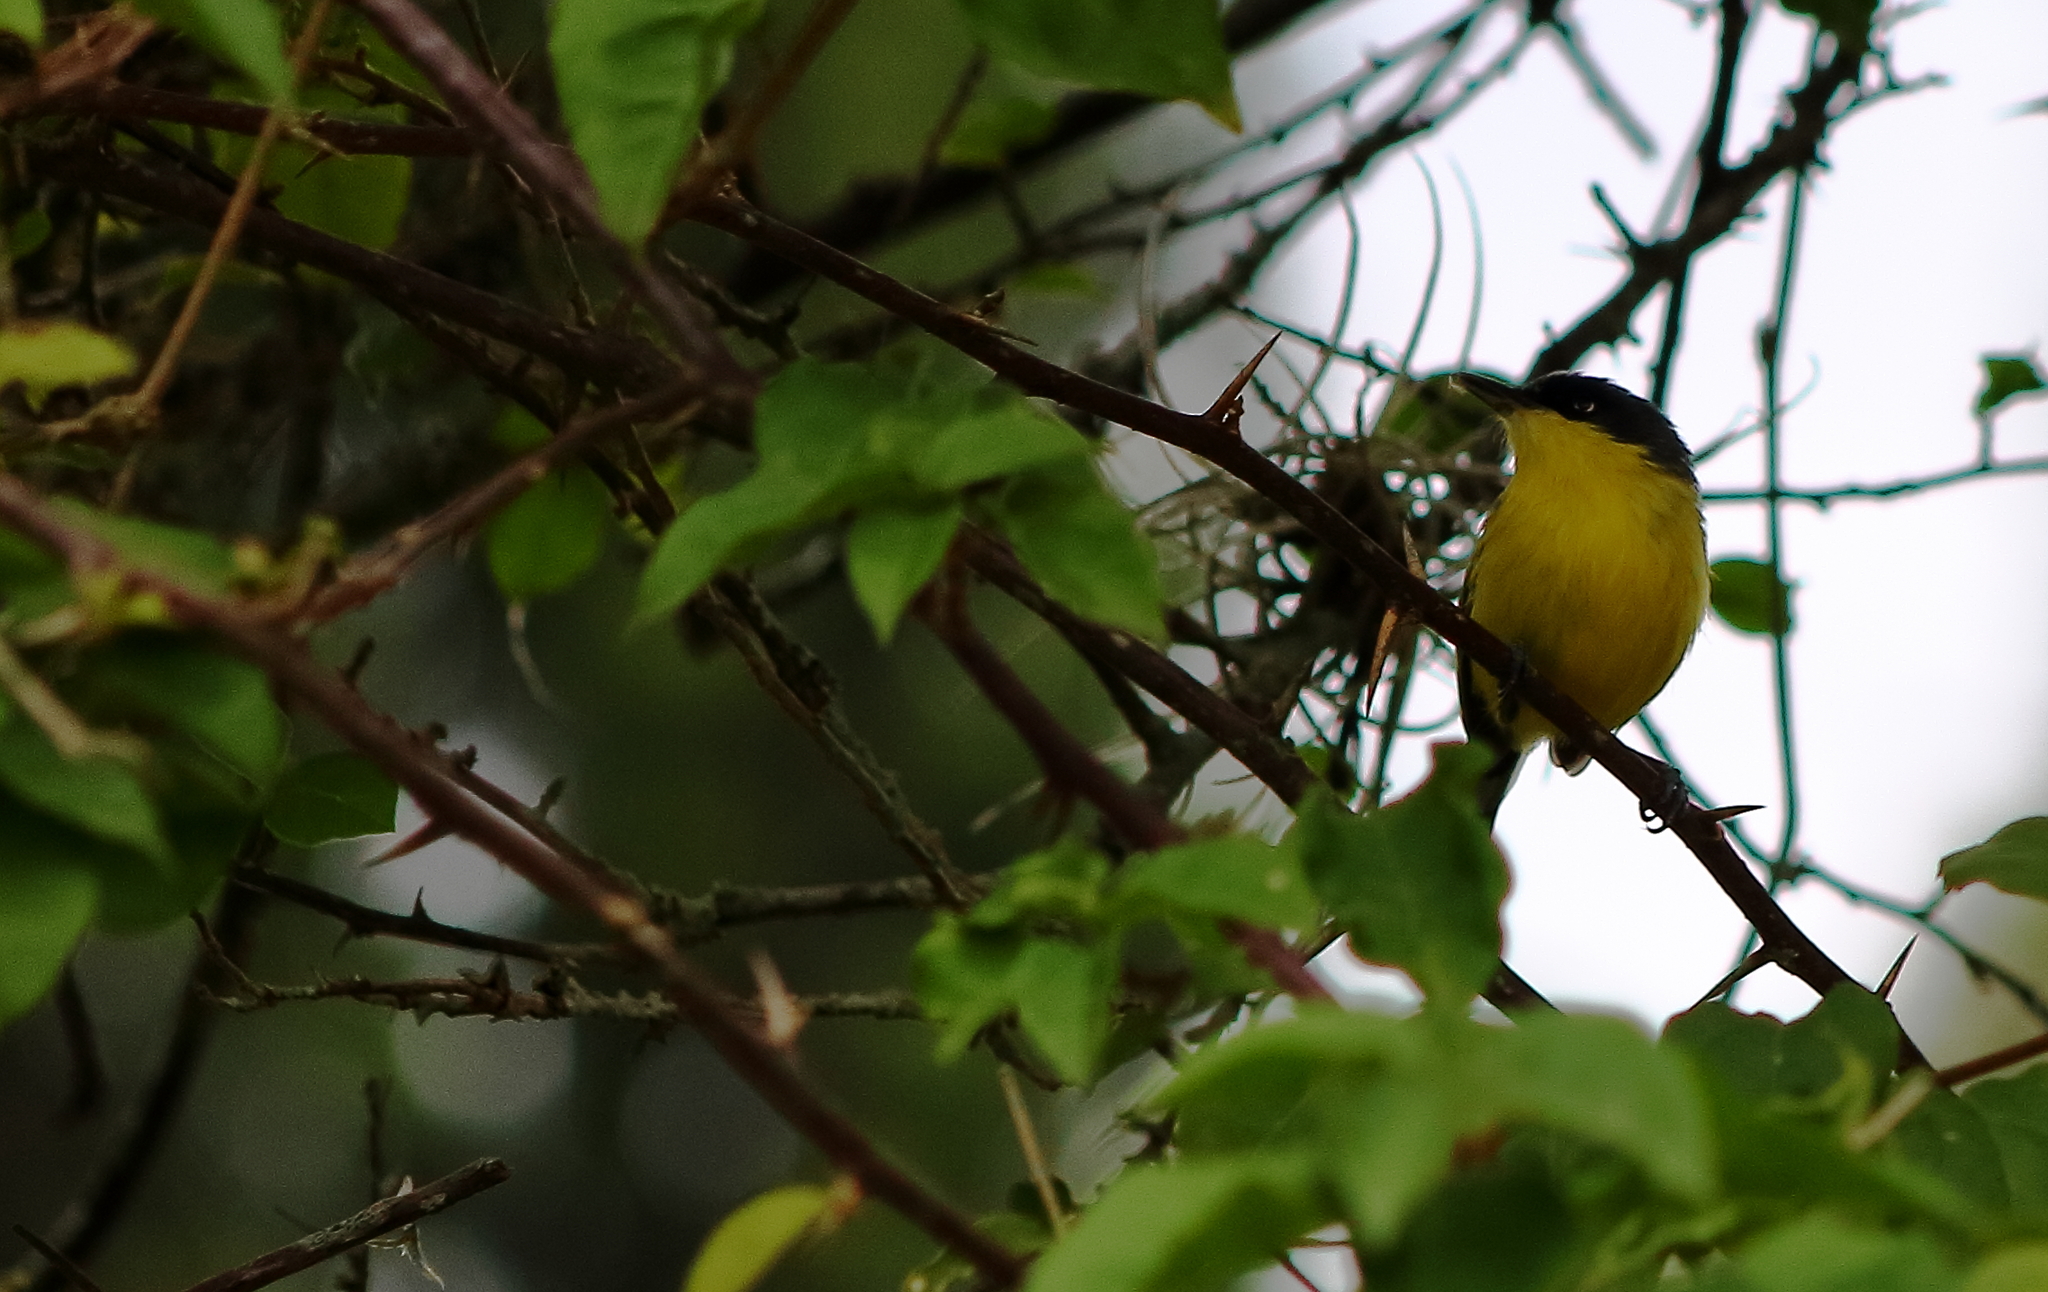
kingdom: Animalia
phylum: Chordata
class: Aves
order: Passeriformes
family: Tyrannidae
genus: Todirostrum
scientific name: Todirostrum cinereum
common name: Common tody-flycatcher
